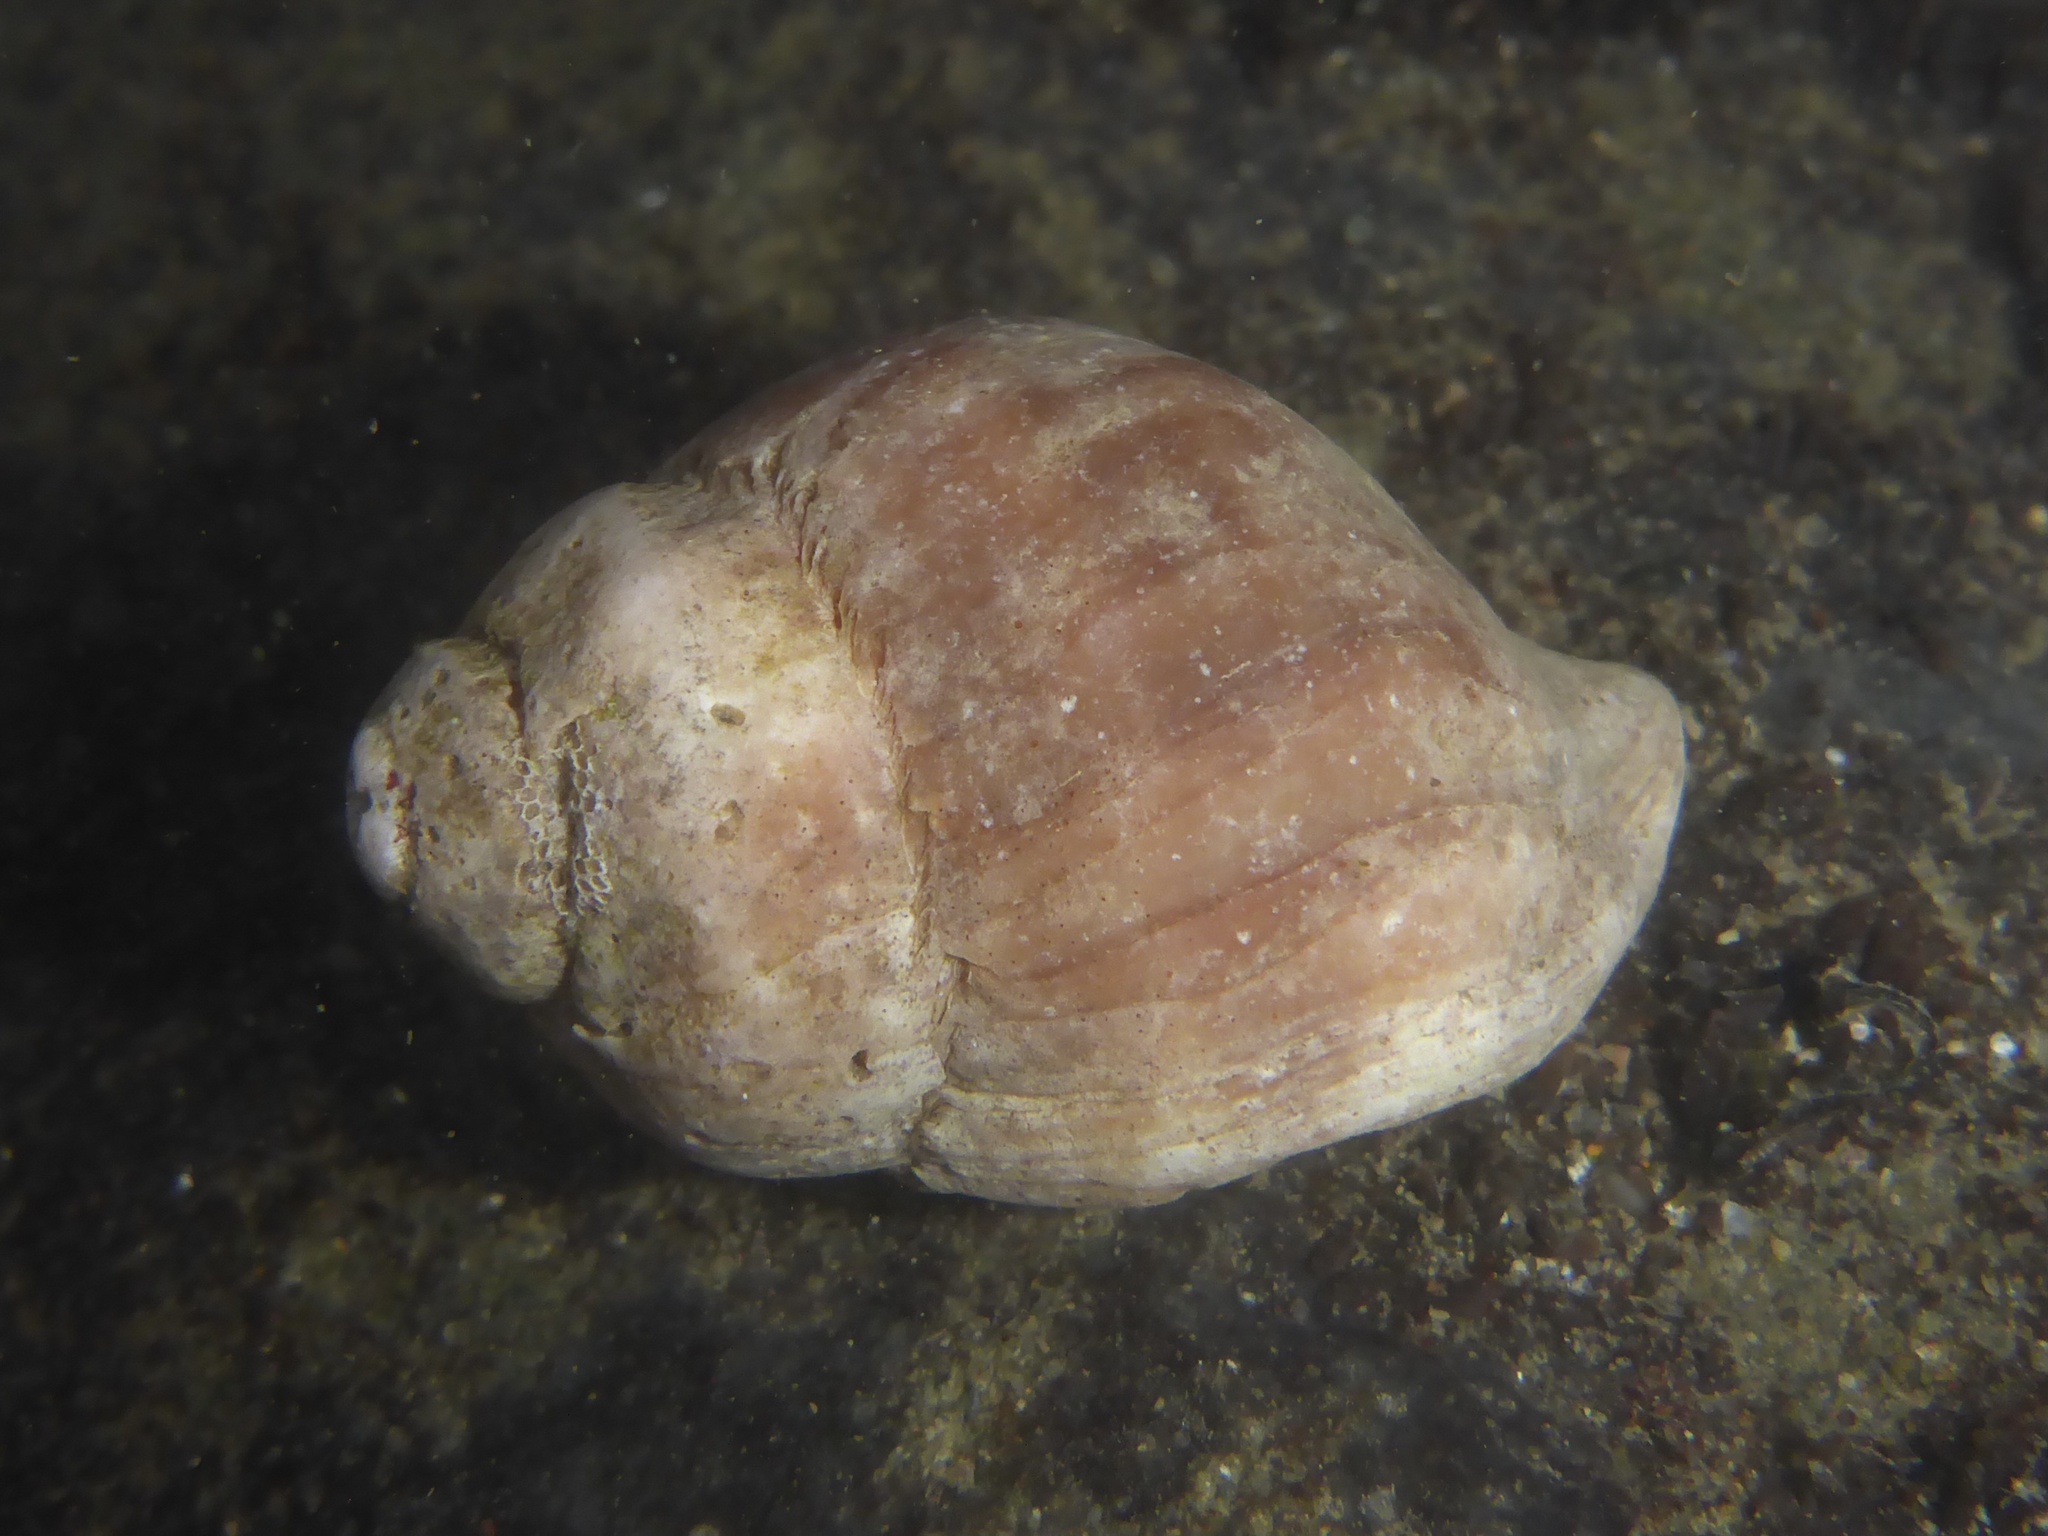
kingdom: Animalia
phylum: Mollusca
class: Gastropoda
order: Neogastropoda
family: Muricidae
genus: Nucella
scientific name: Nucella lamellosa
